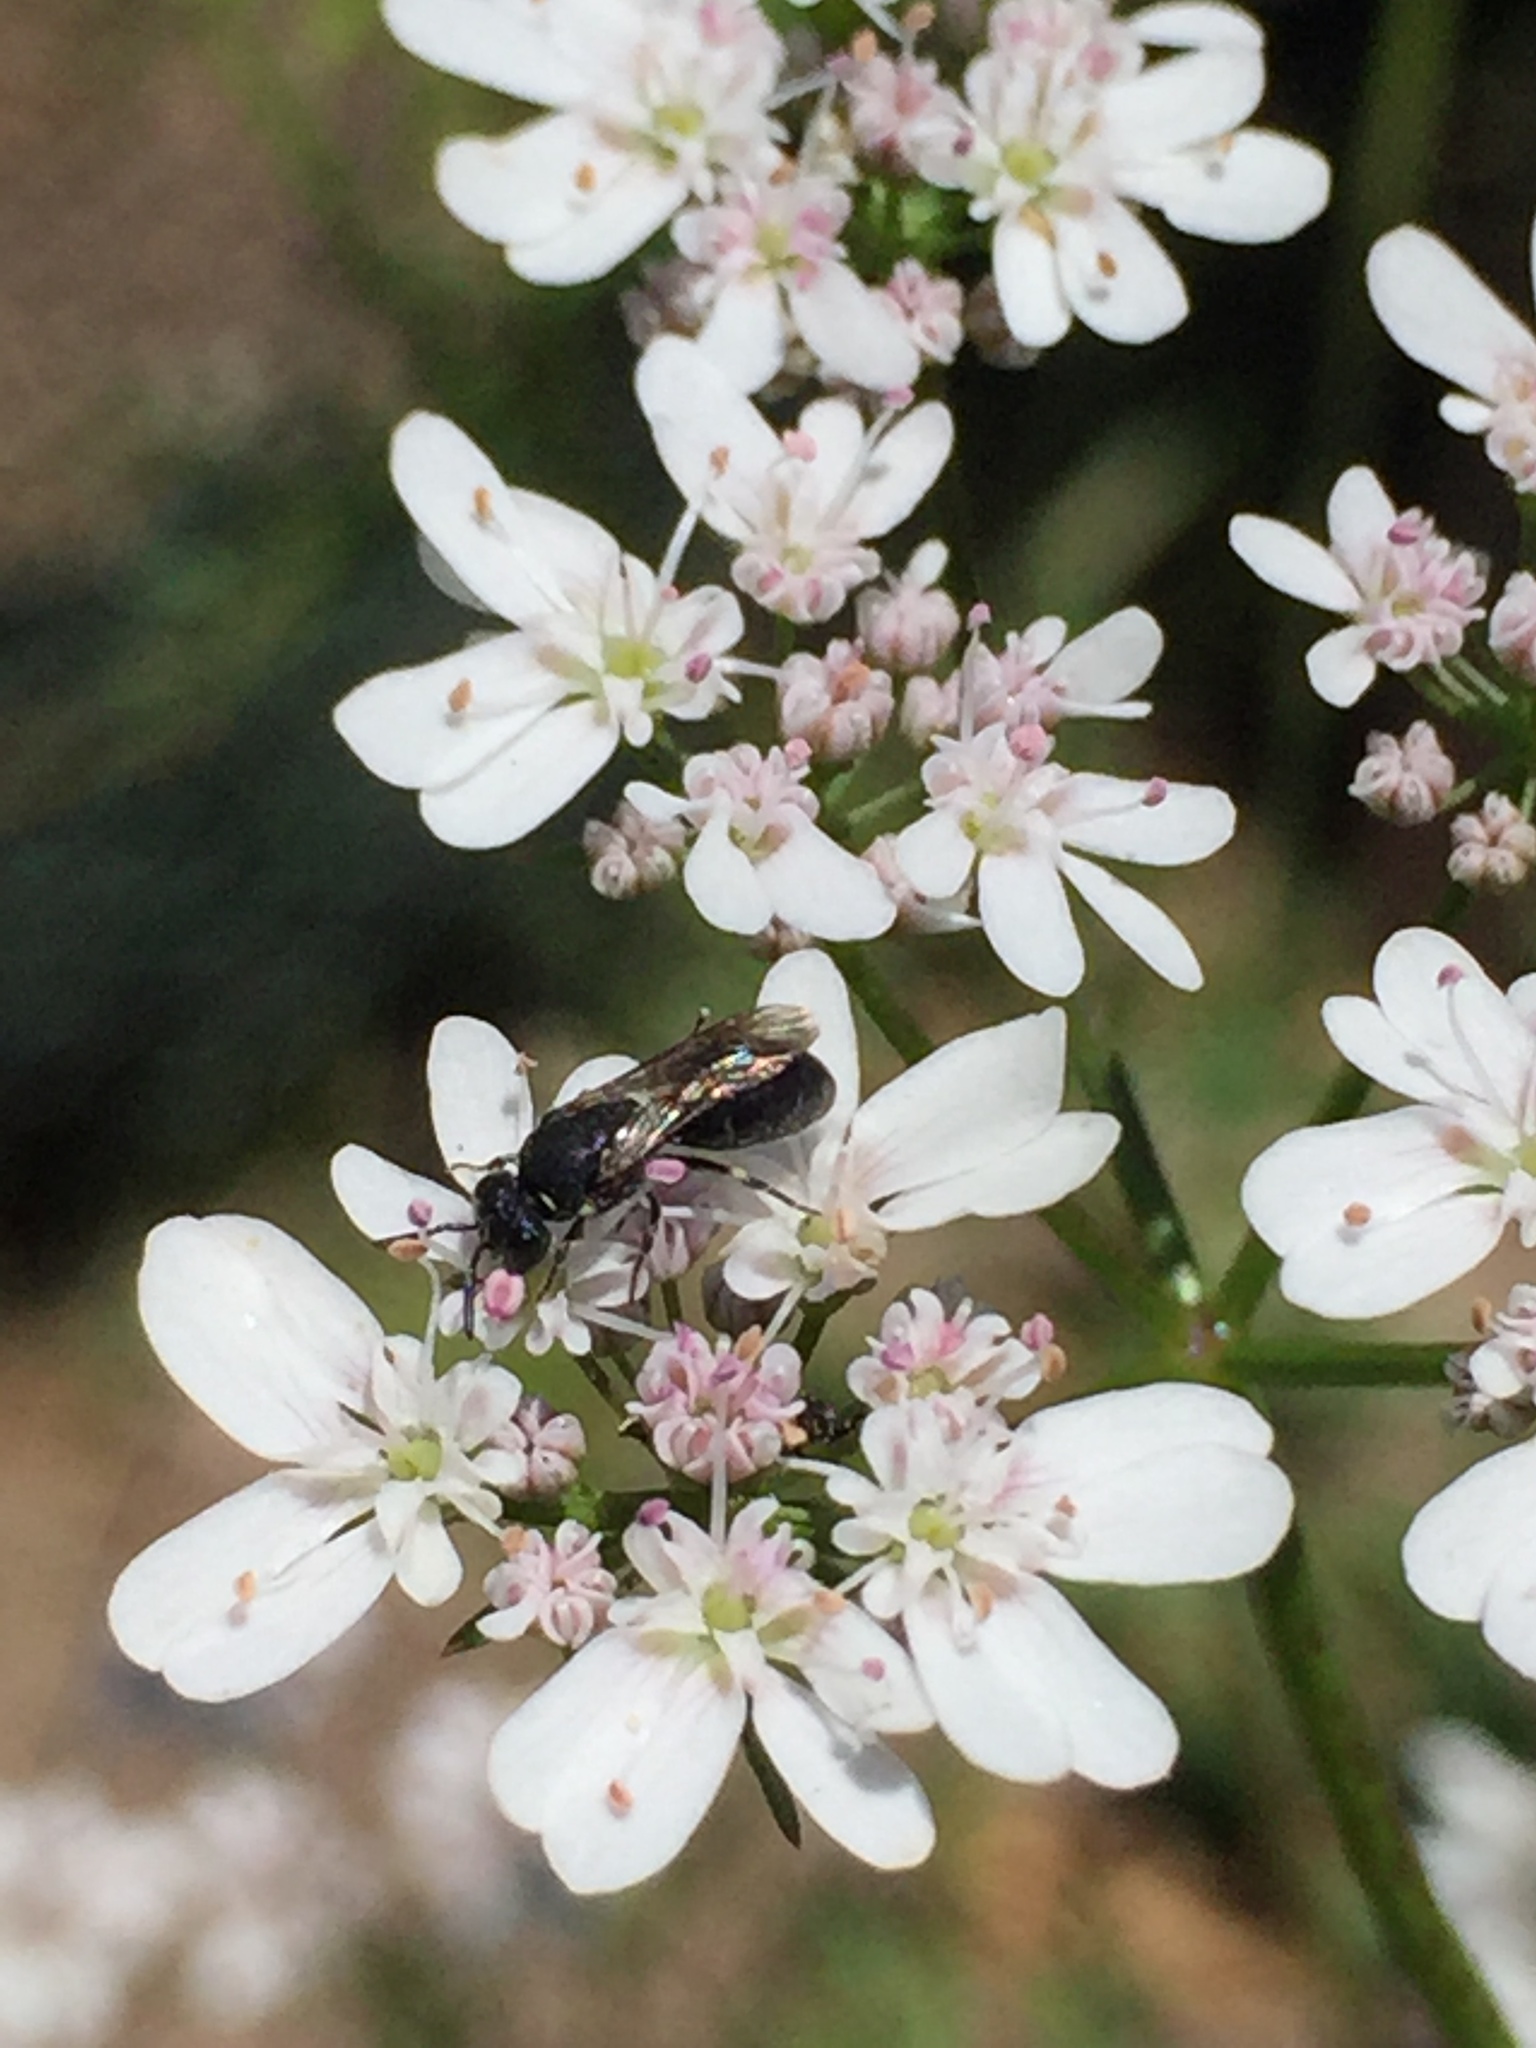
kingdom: Animalia
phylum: Arthropoda
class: Insecta
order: Hymenoptera
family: Colletidae
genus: Hylaeus
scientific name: Hylaeus
